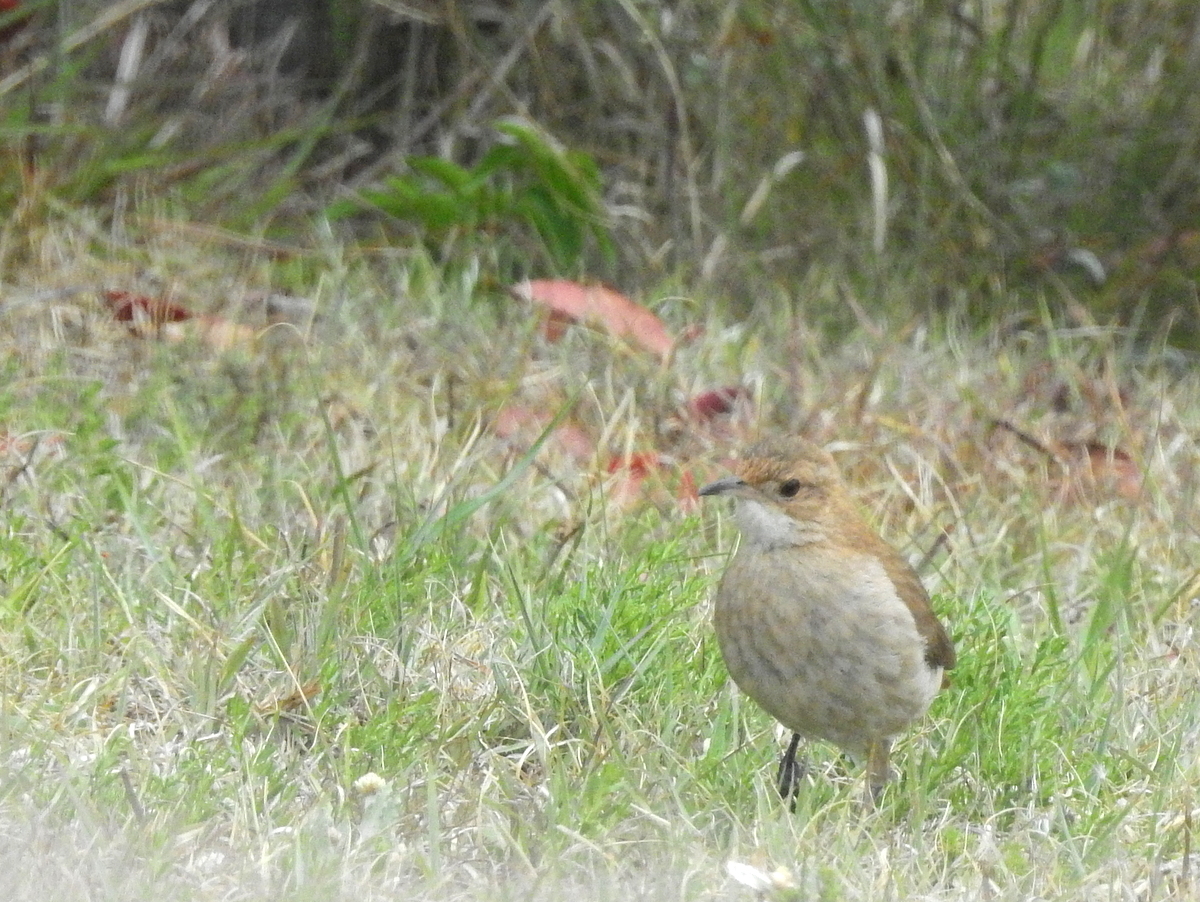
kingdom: Animalia
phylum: Chordata
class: Aves
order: Passeriformes
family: Furnariidae
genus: Furnarius
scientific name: Furnarius rufus
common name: Rufous hornero
